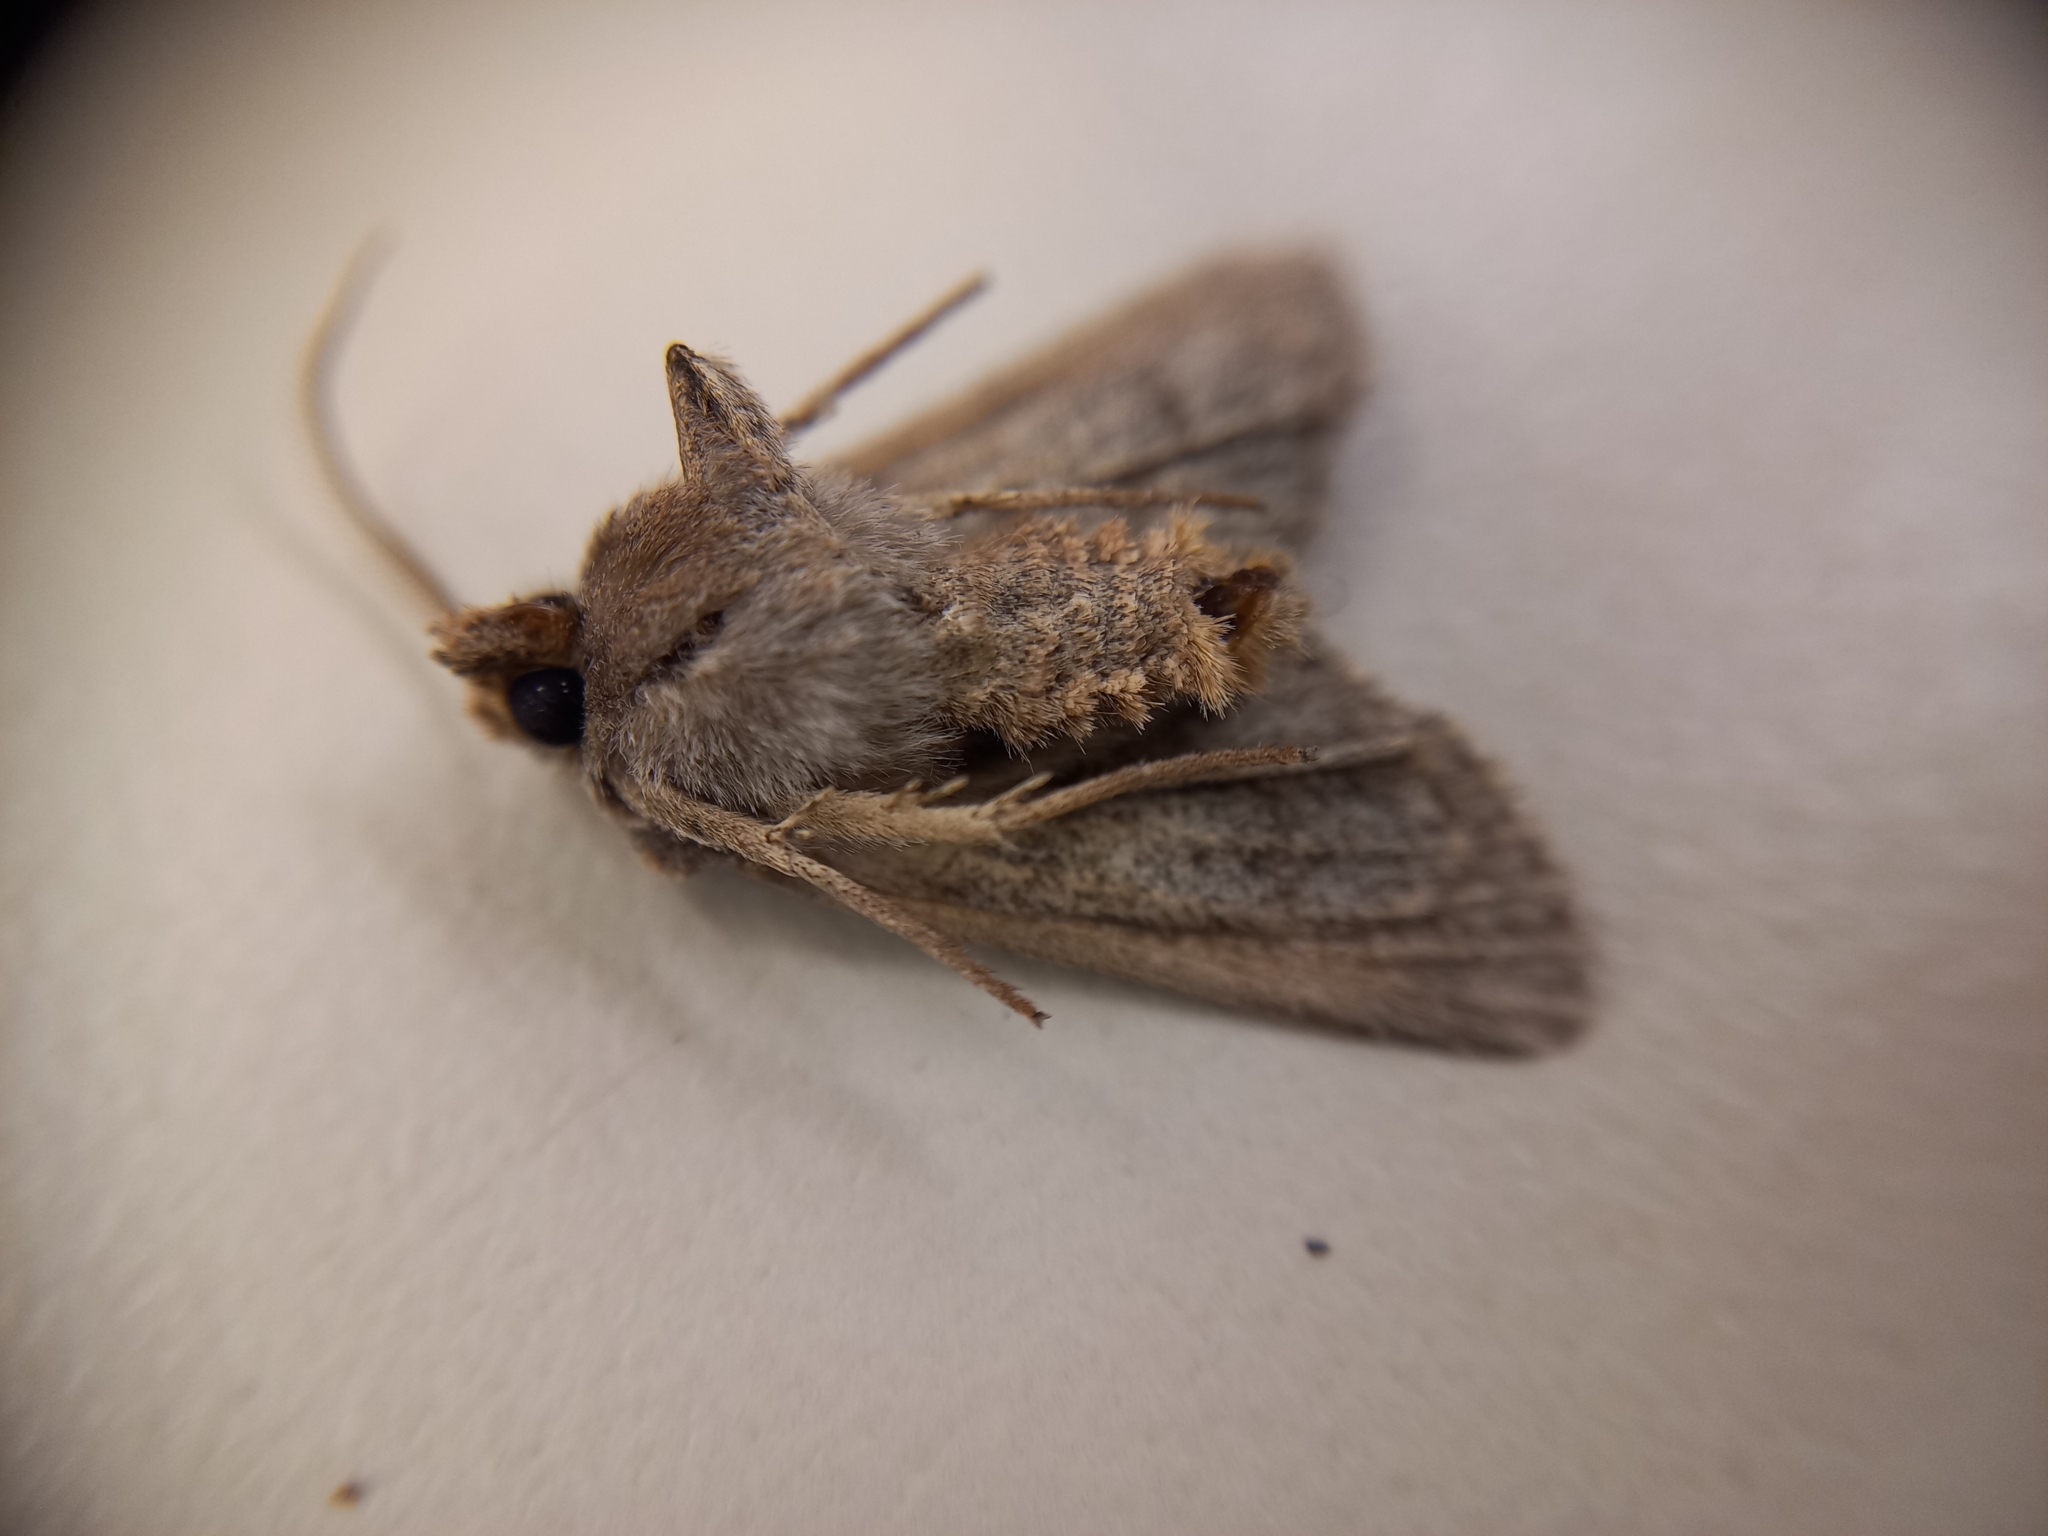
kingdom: Animalia
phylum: Arthropoda
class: Insecta
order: Lepidoptera
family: Noctuidae
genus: Ichneutica
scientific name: Ichneutica
